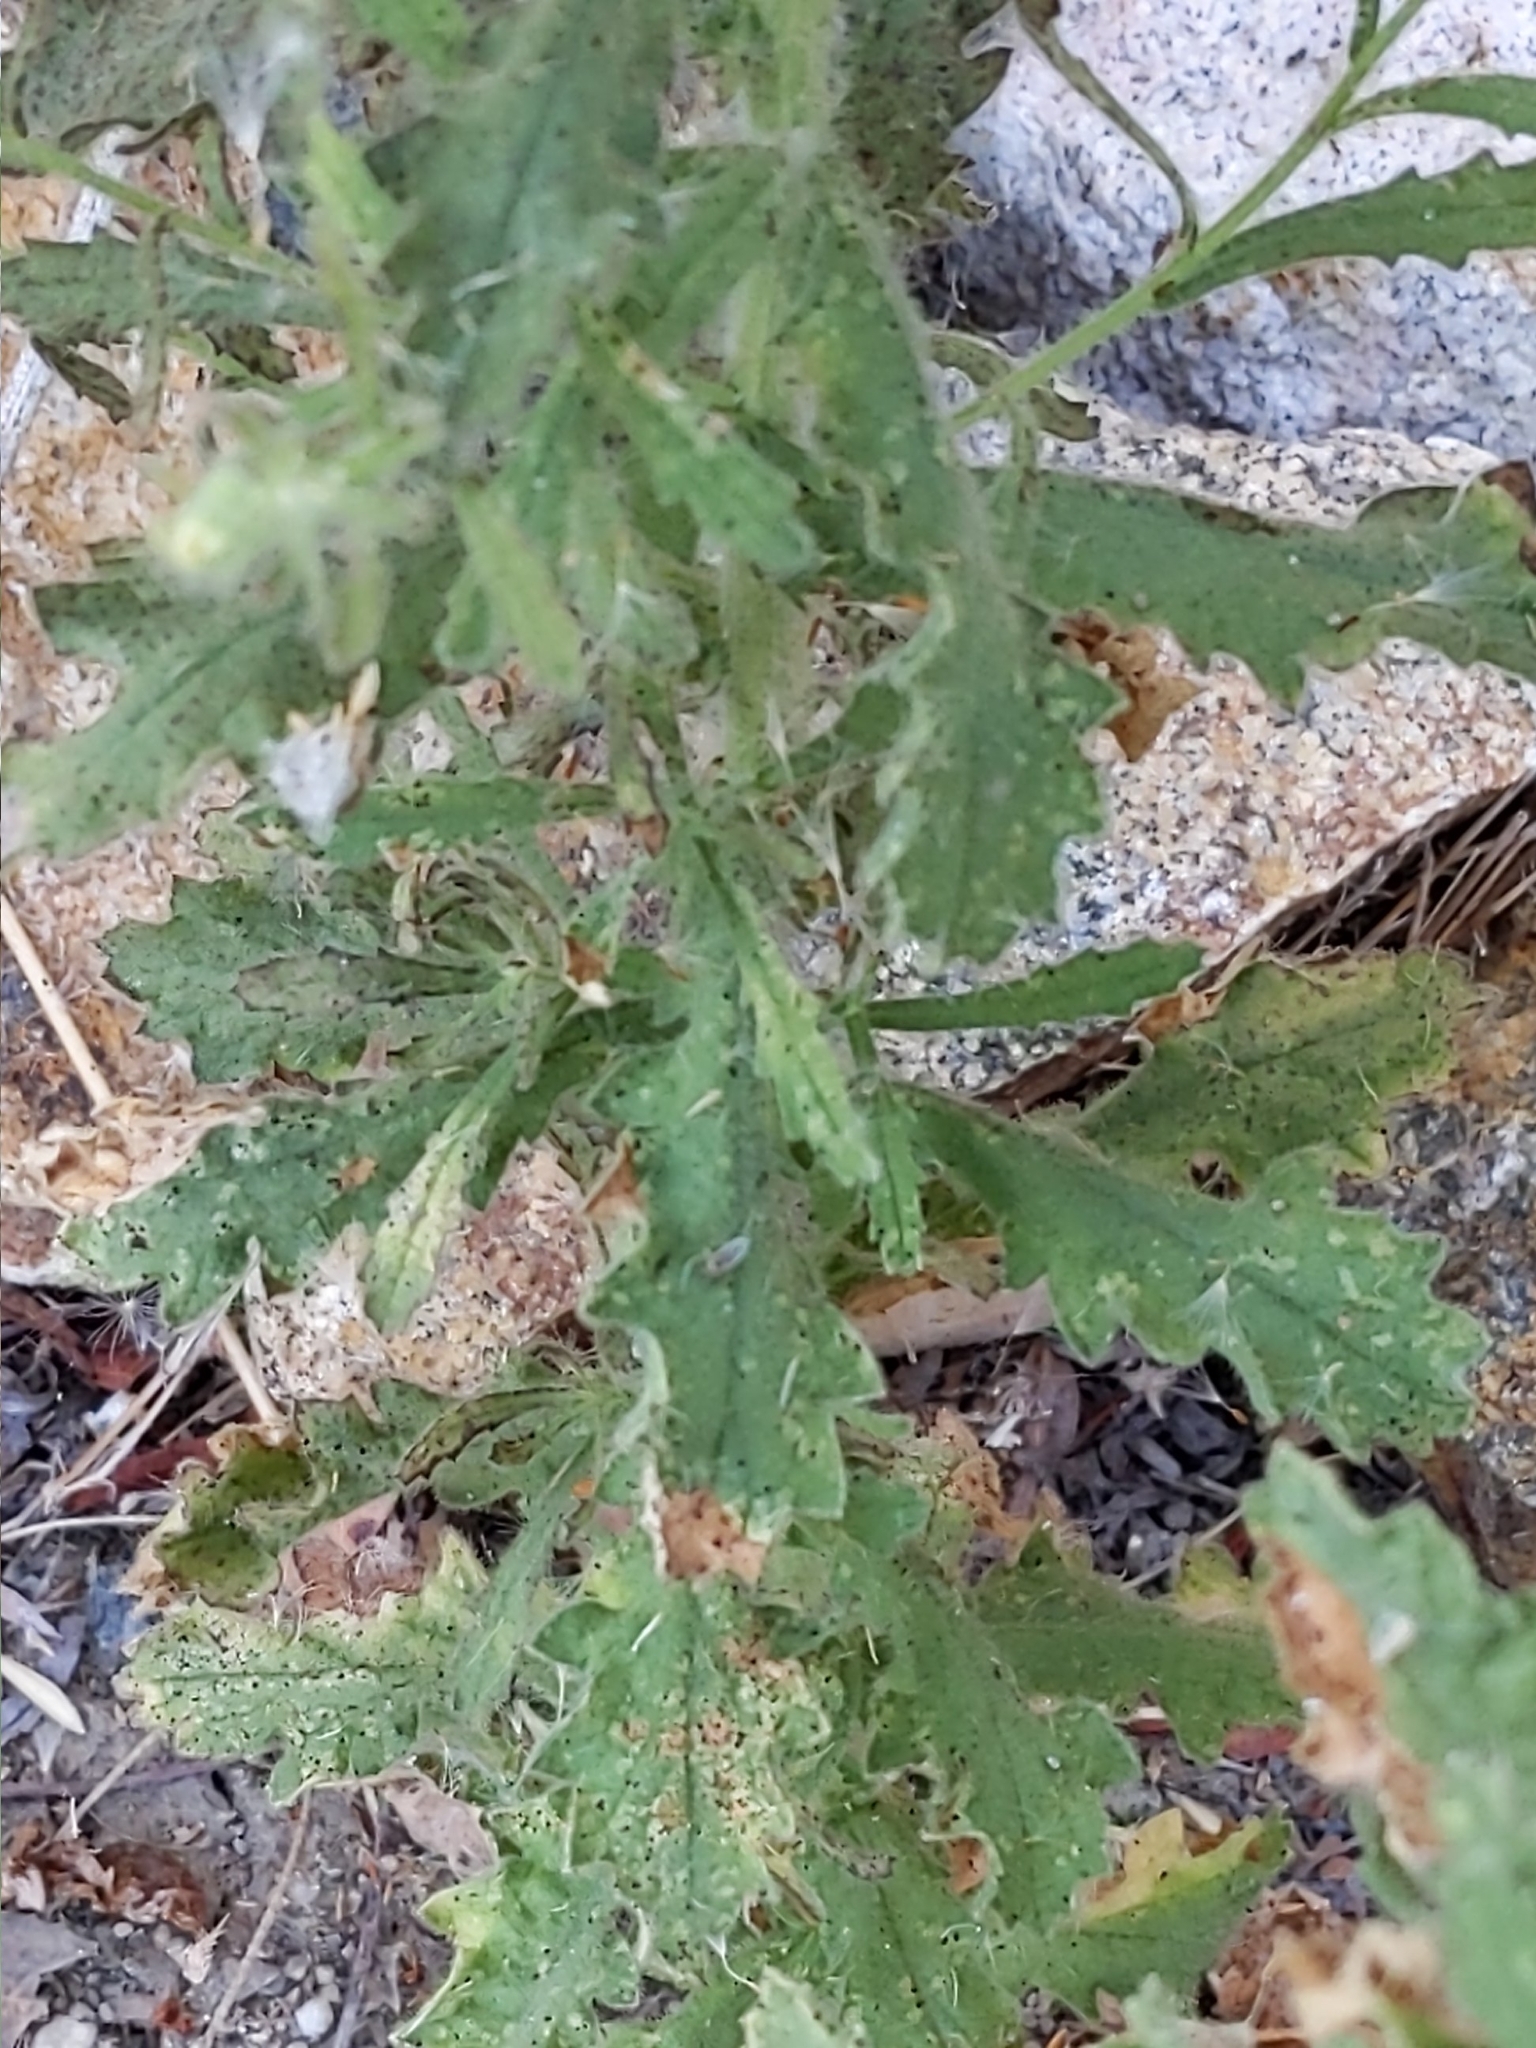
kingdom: Plantae
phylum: Tracheophyta
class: Magnoliopsida
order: Asterales
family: Asteraceae
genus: Laennecia
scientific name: Laennecia coulteri
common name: Coulter's woolwort
